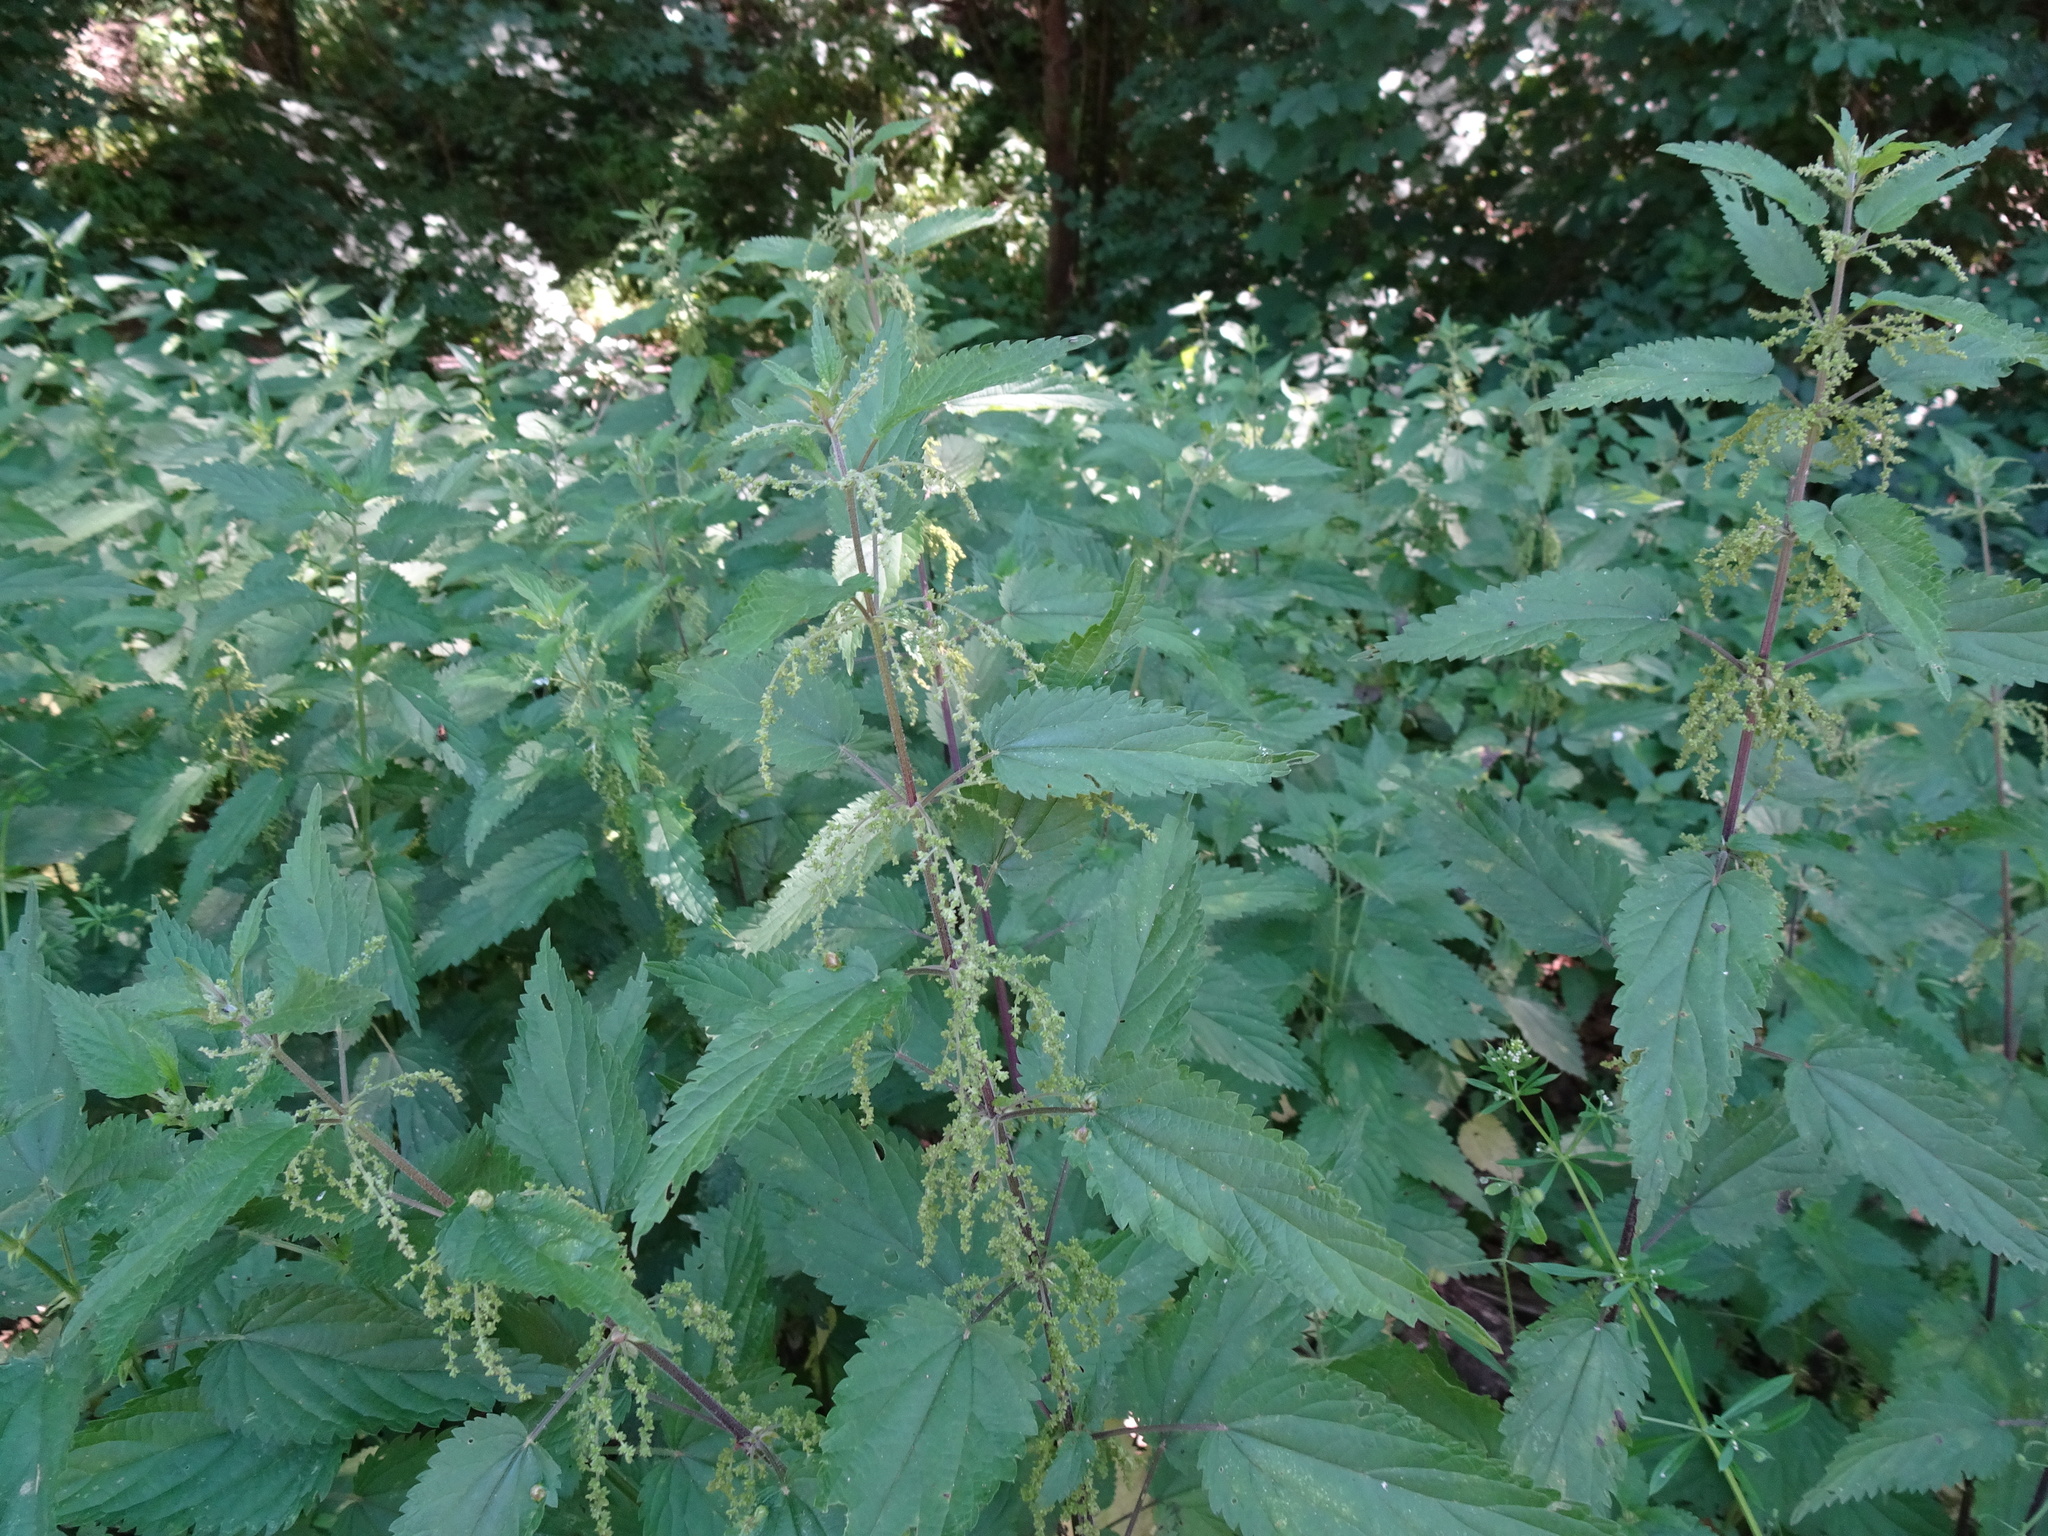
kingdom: Plantae
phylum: Tracheophyta
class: Magnoliopsida
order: Rosales
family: Urticaceae
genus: Urtica
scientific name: Urtica dioica
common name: Common nettle
